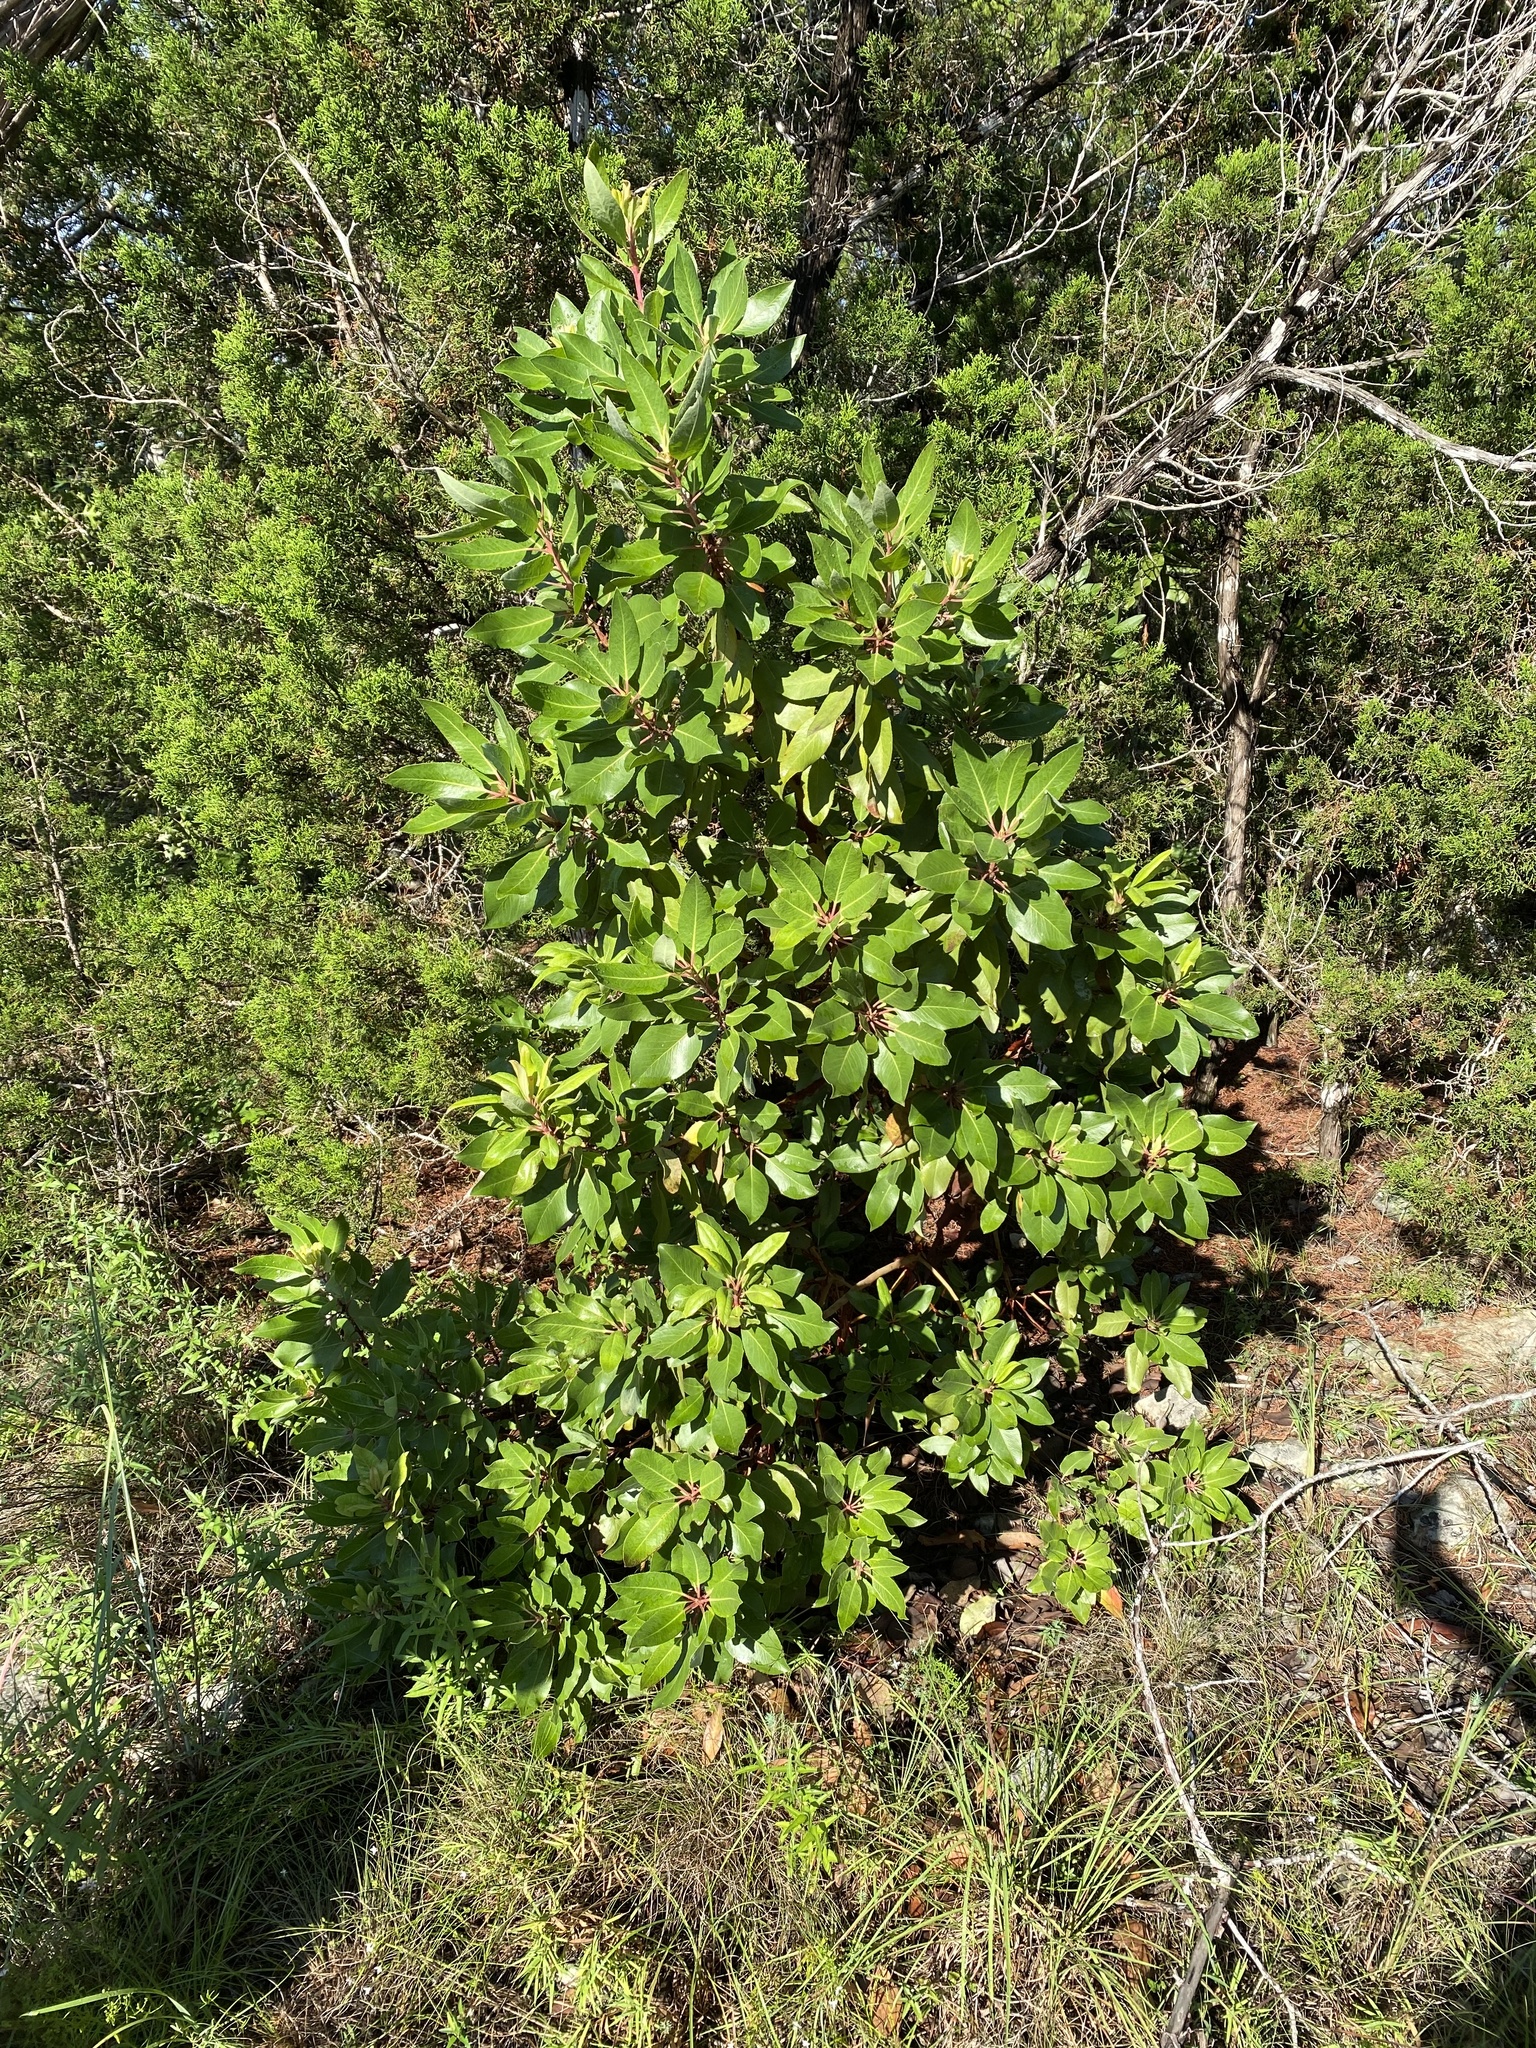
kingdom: Plantae
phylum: Tracheophyta
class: Magnoliopsida
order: Ericales
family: Ericaceae
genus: Arbutus
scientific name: Arbutus xalapensis
